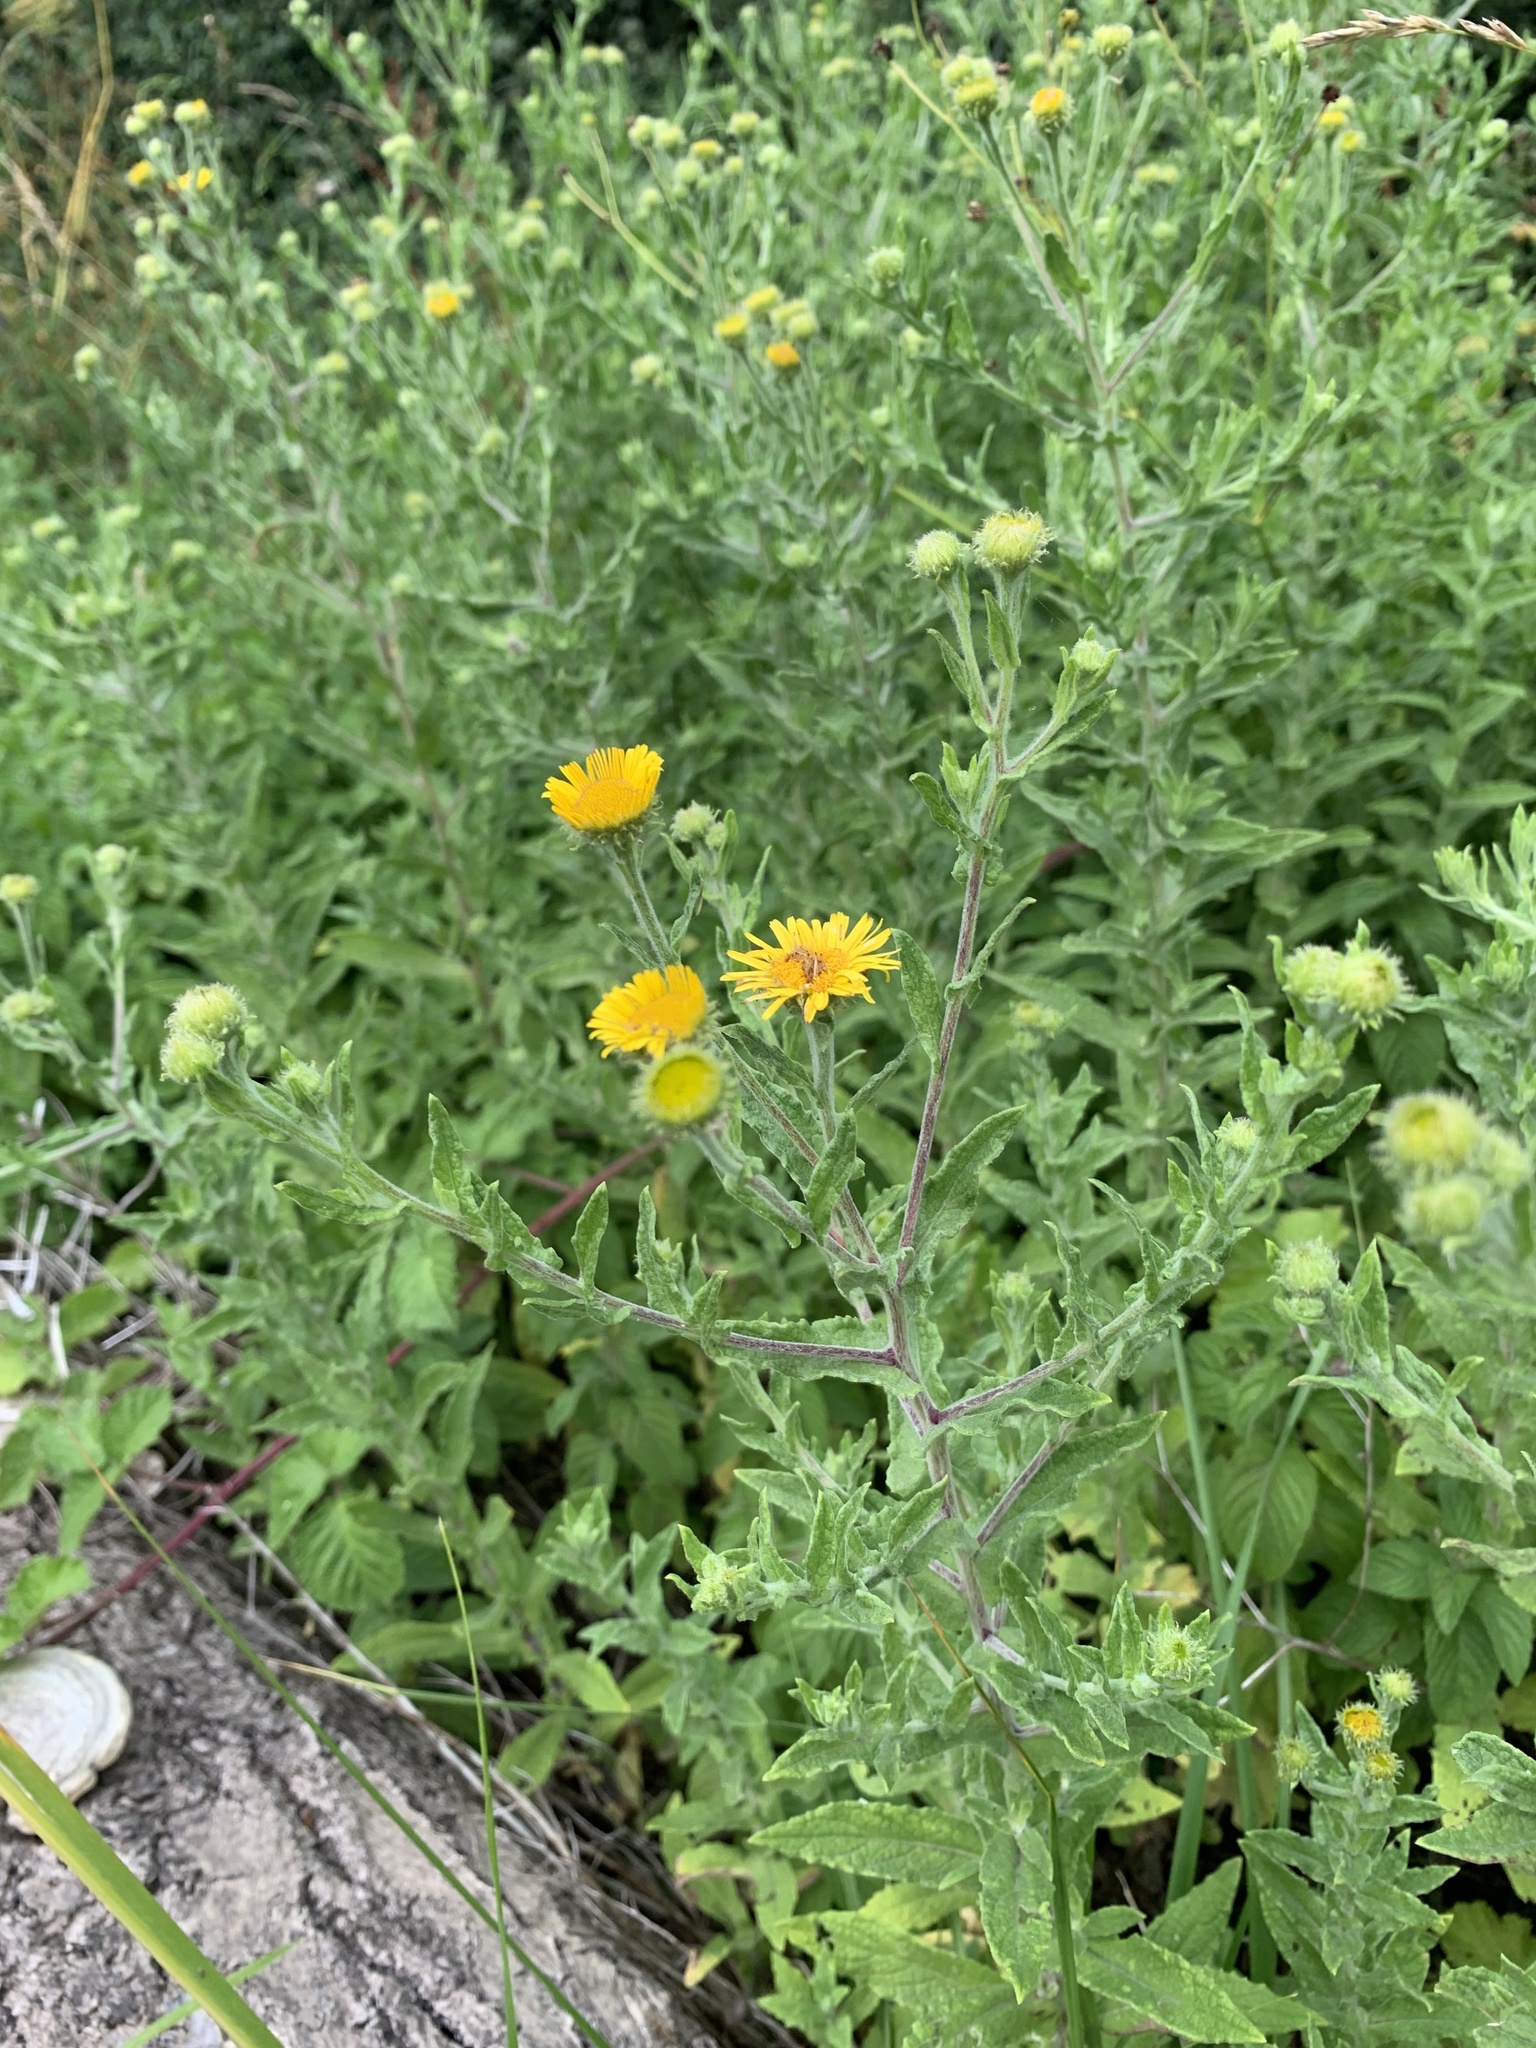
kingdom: Plantae
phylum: Tracheophyta
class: Magnoliopsida
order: Asterales
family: Asteraceae
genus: Pulicaria
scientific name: Pulicaria dysenterica
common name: Common fleabane
